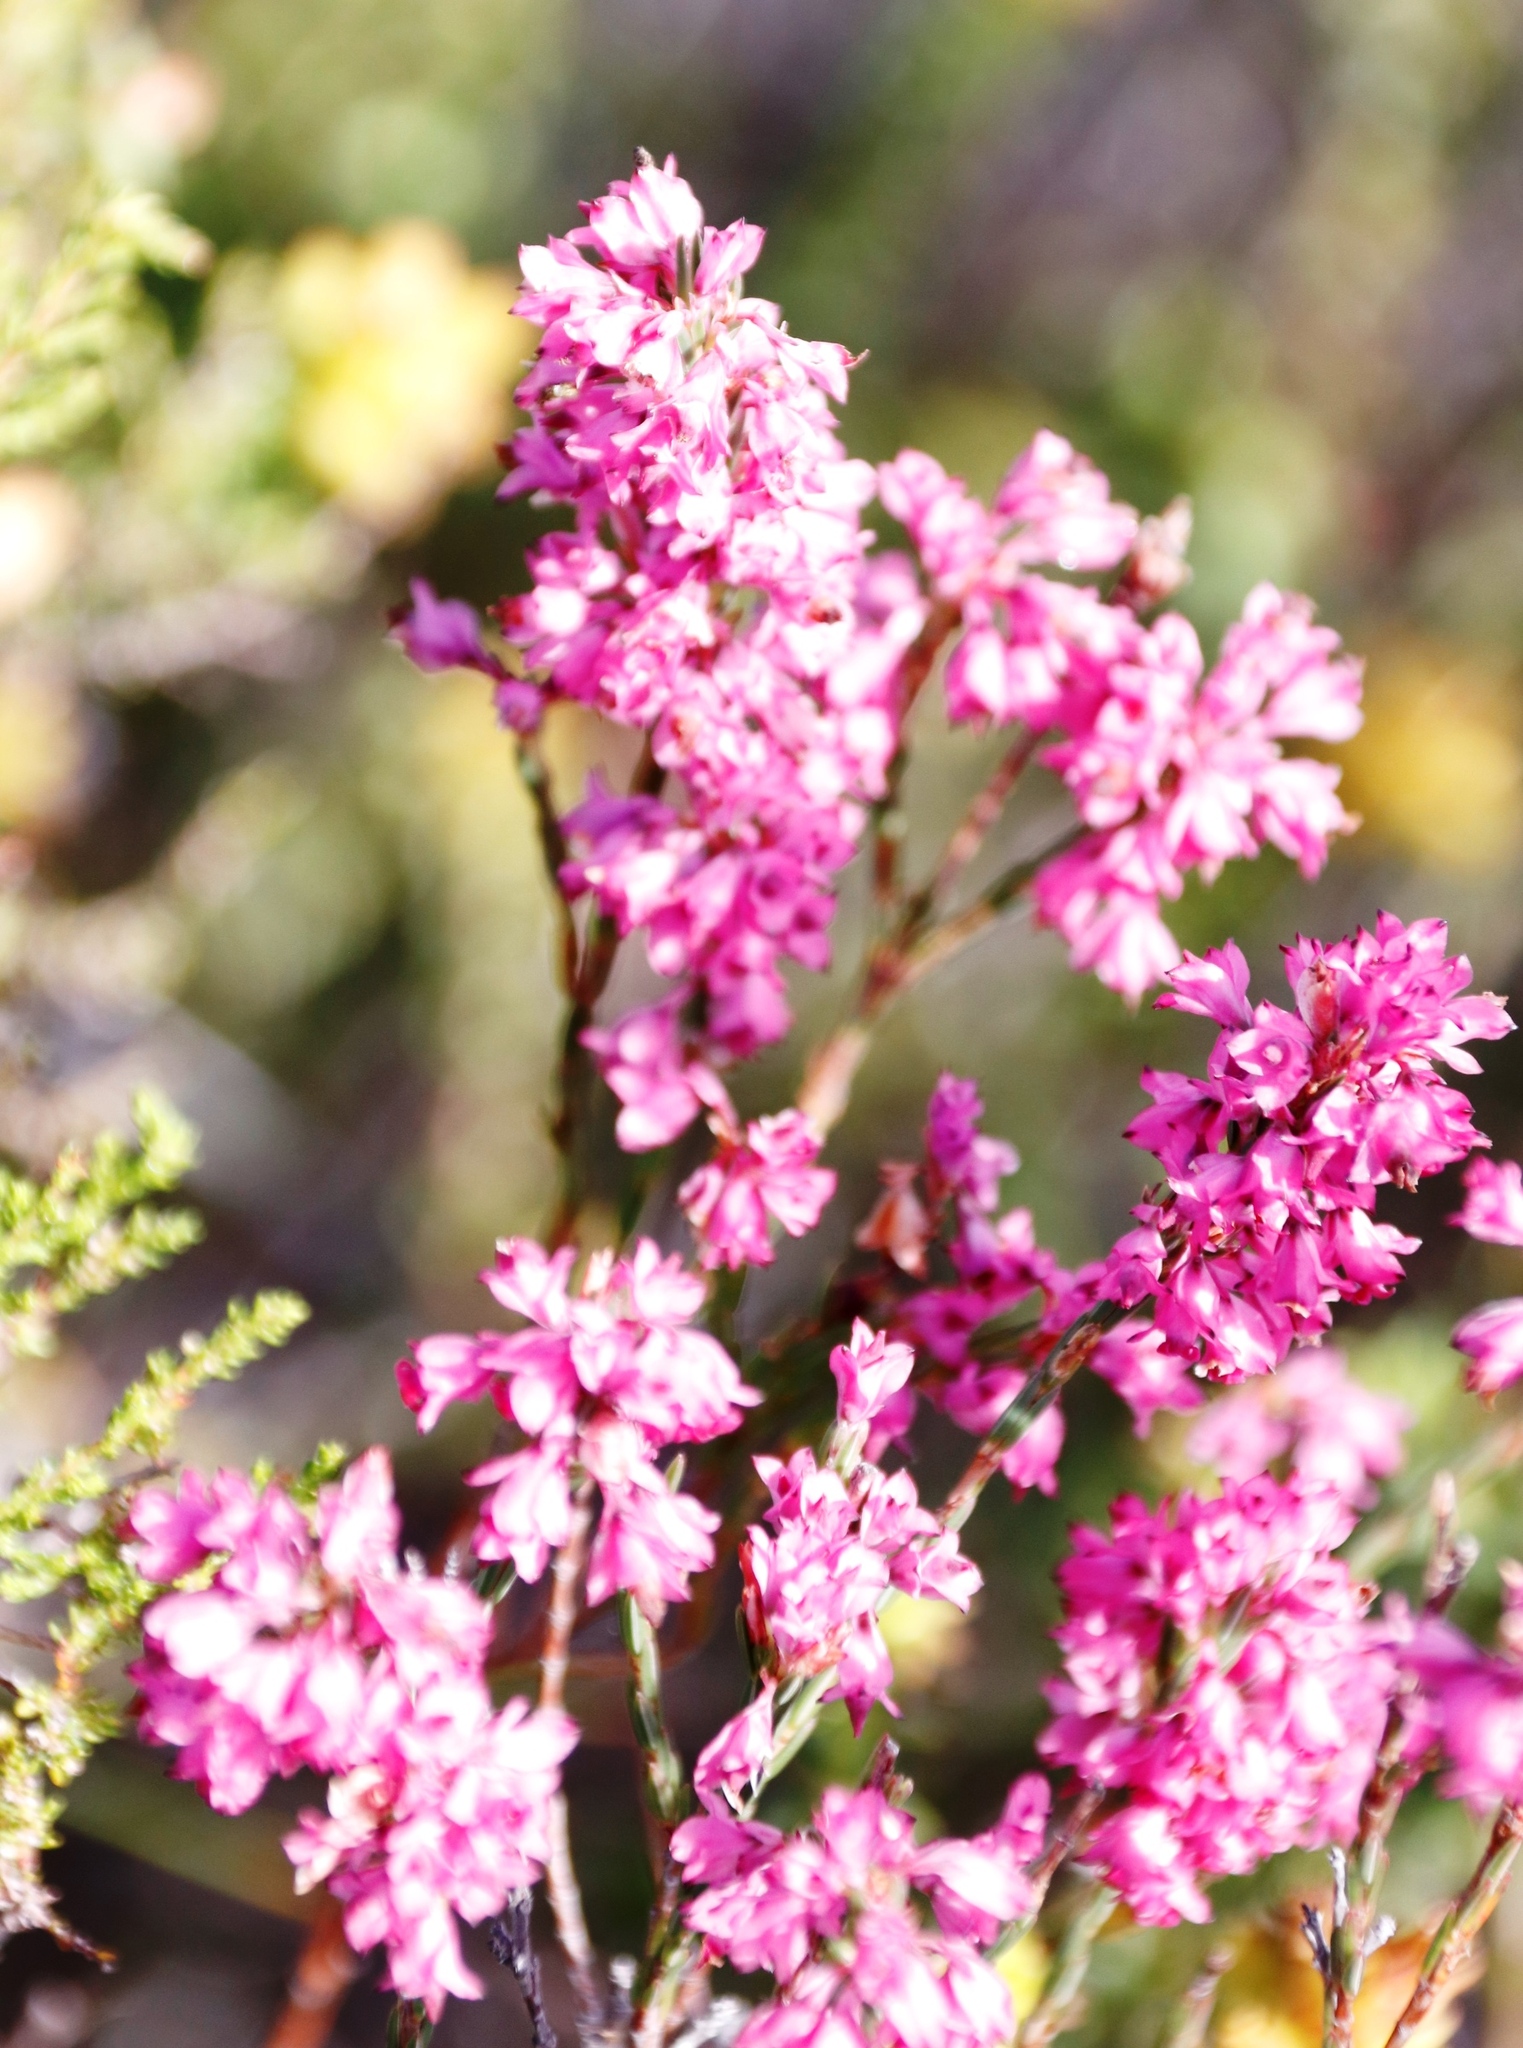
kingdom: Plantae
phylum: Tracheophyta
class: Magnoliopsida
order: Ericales
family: Ericaceae
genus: Erica
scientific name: Erica corifolia
